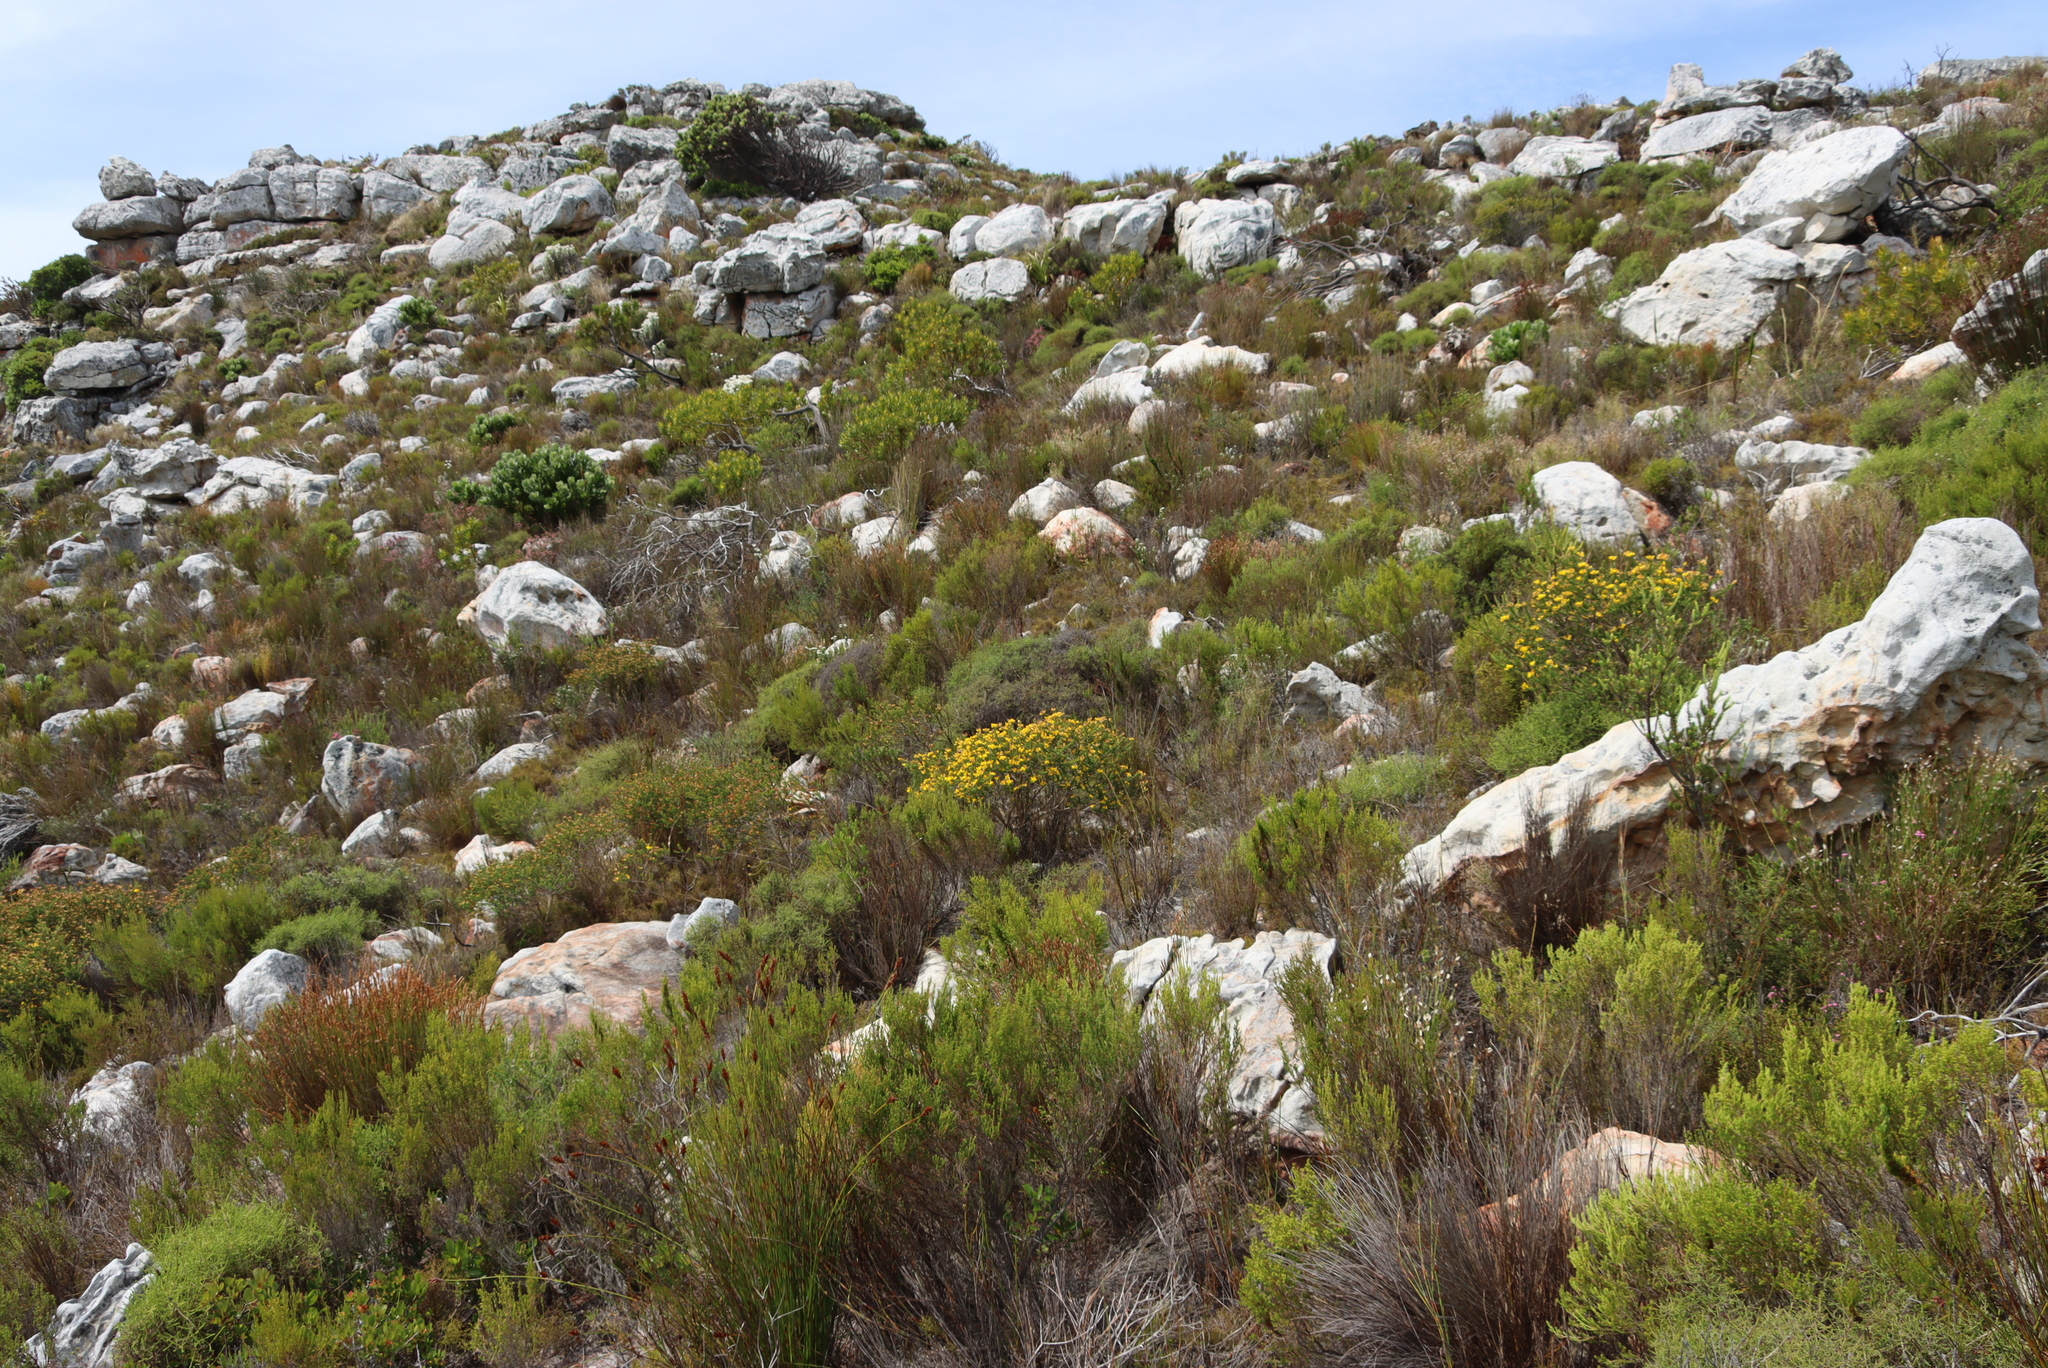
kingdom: Plantae
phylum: Tracheophyta
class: Magnoliopsida
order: Fabales
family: Fabaceae
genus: Aspalathus
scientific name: Aspalathus carnosa
